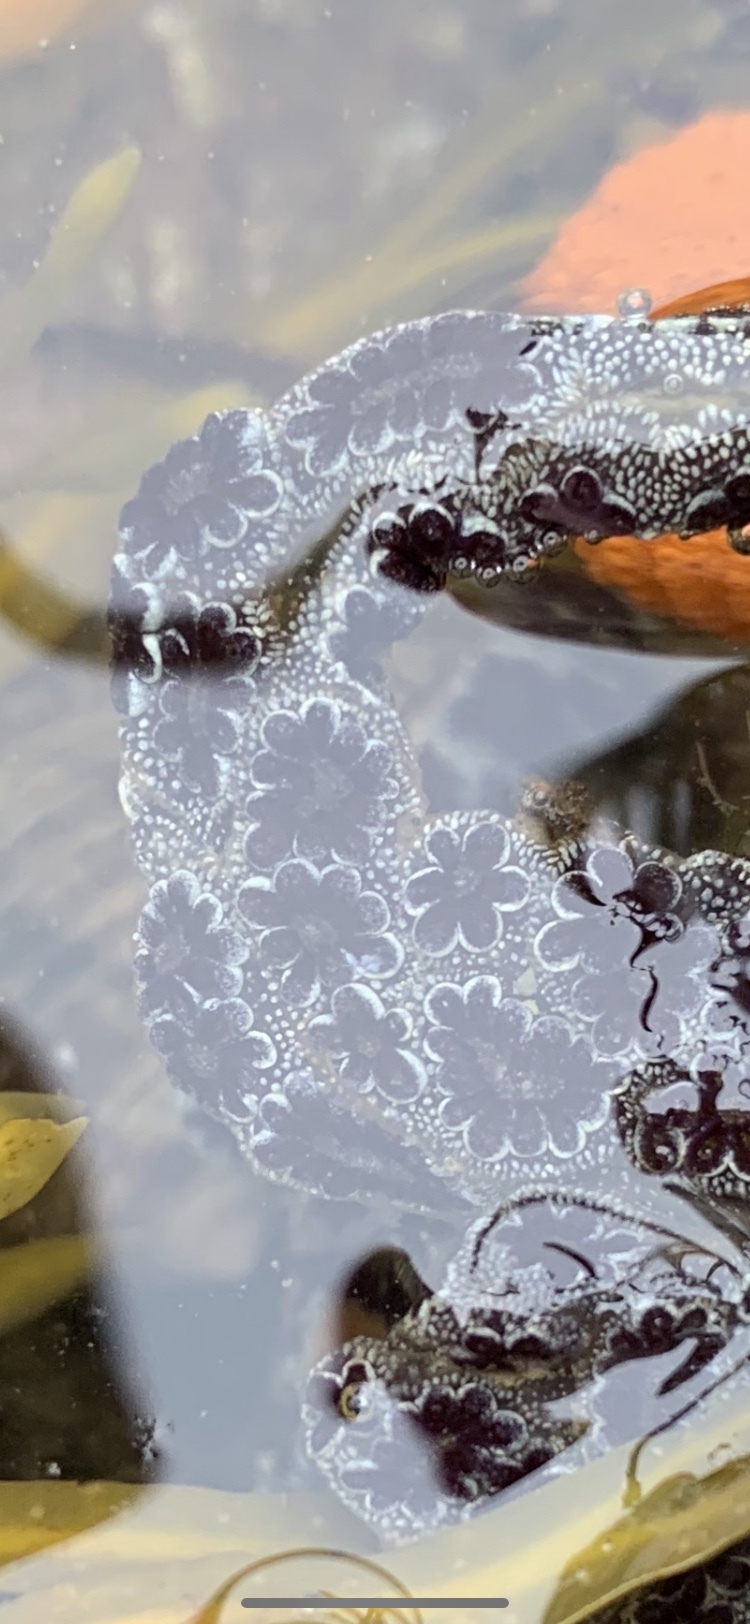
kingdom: Animalia
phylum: Chordata
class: Ascidiacea
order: Stolidobranchia
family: Styelidae
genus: Botryllus
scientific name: Botryllus schlosseri
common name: Golden star tunicate
